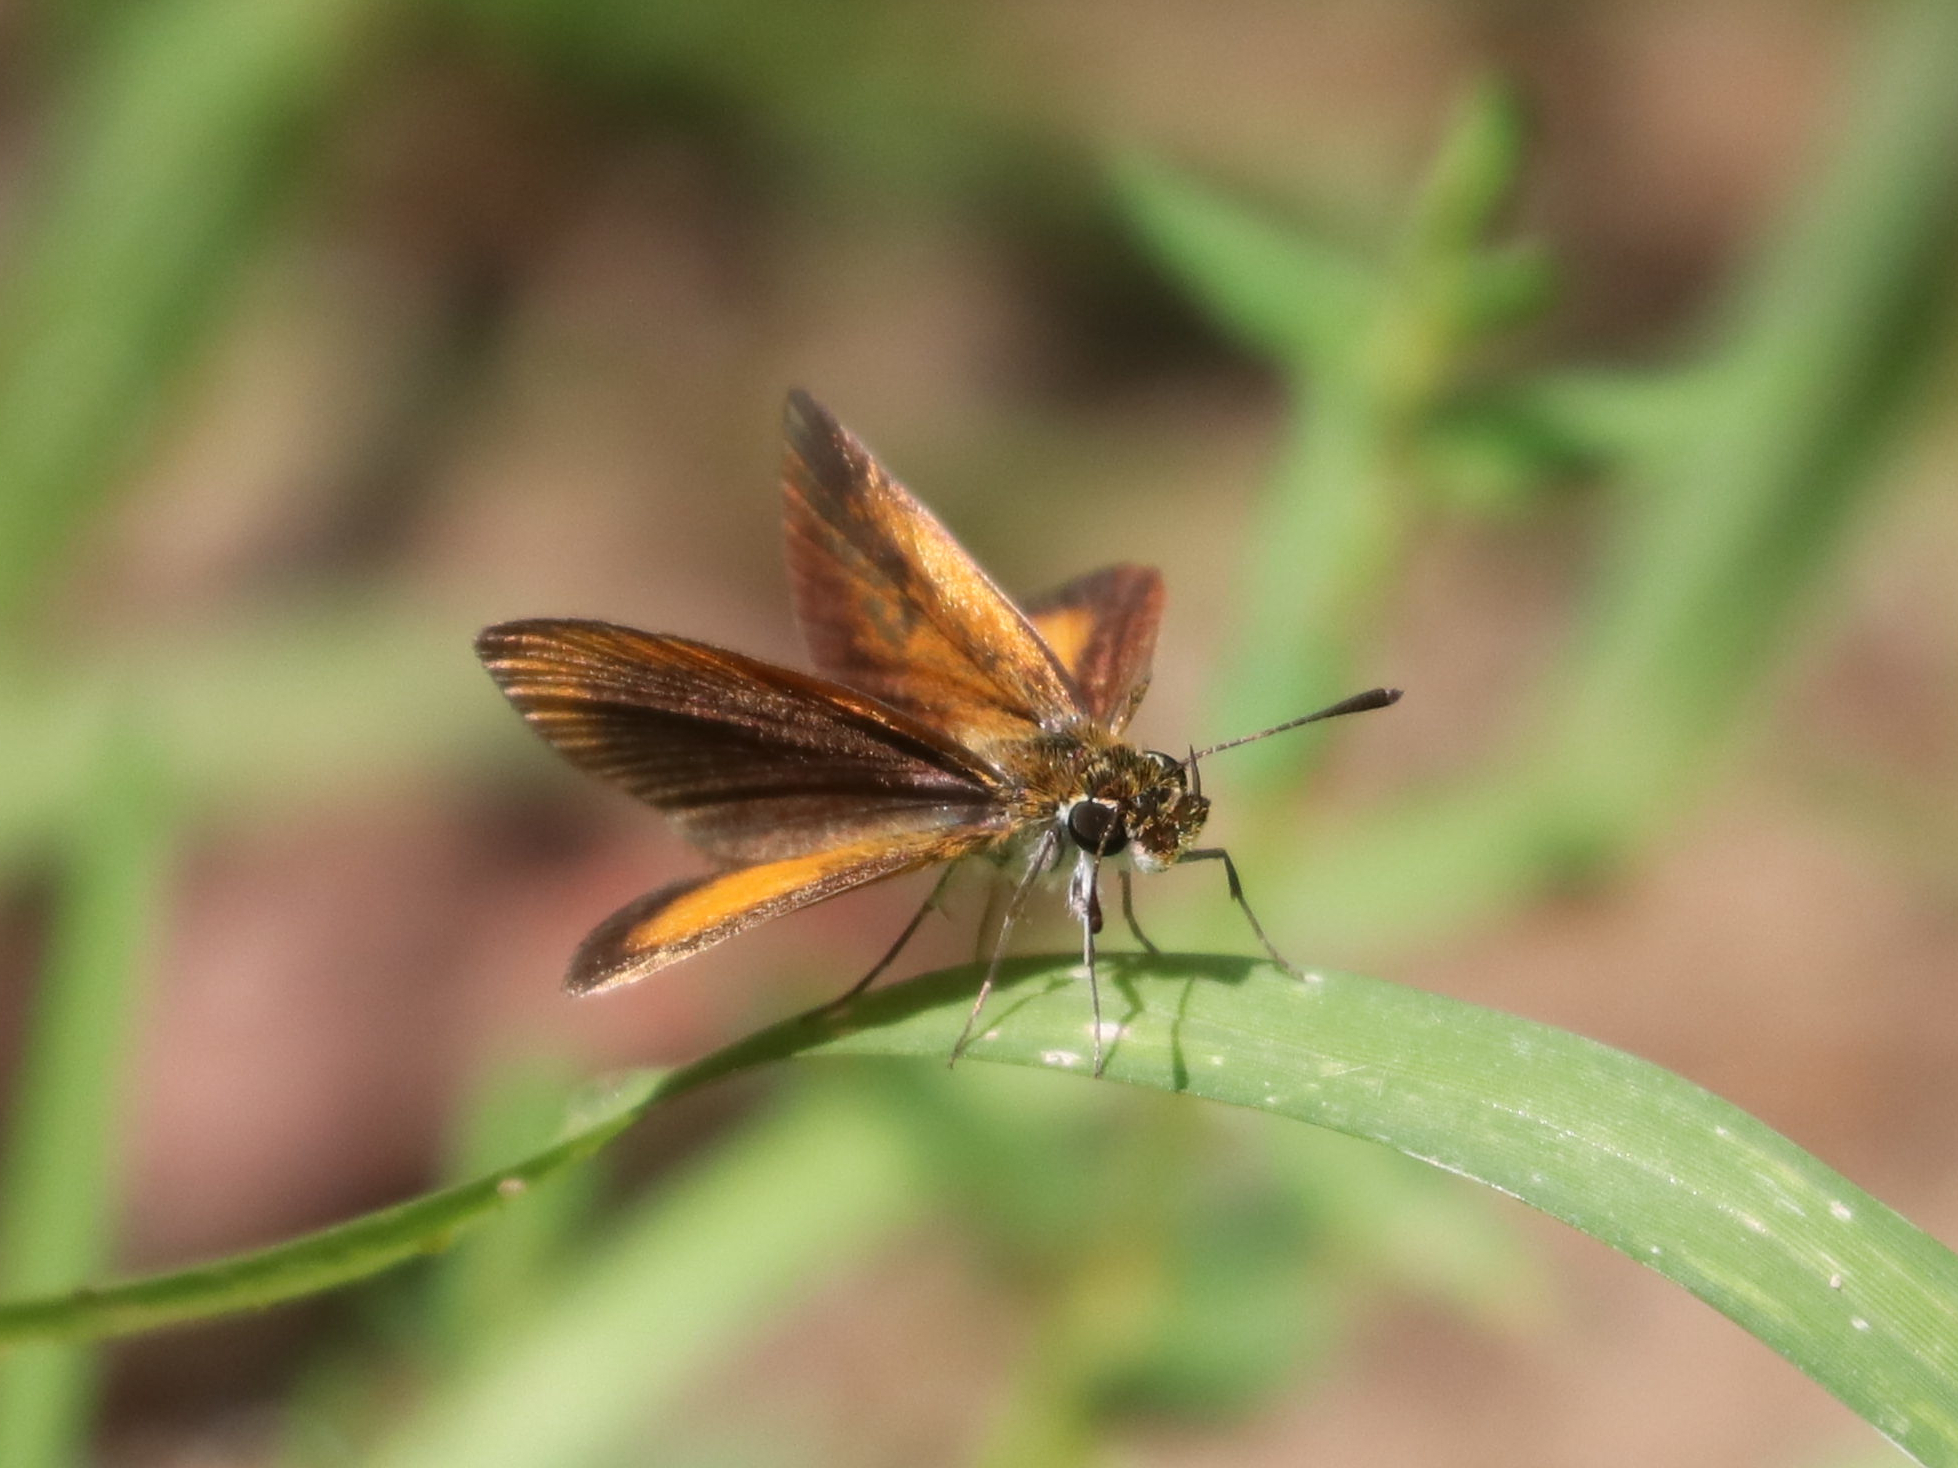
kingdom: Animalia
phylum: Arthropoda
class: Insecta
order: Lepidoptera
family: Hesperiidae
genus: Ancyloxypha
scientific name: Ancyloxypha numitor
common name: Least skipper
